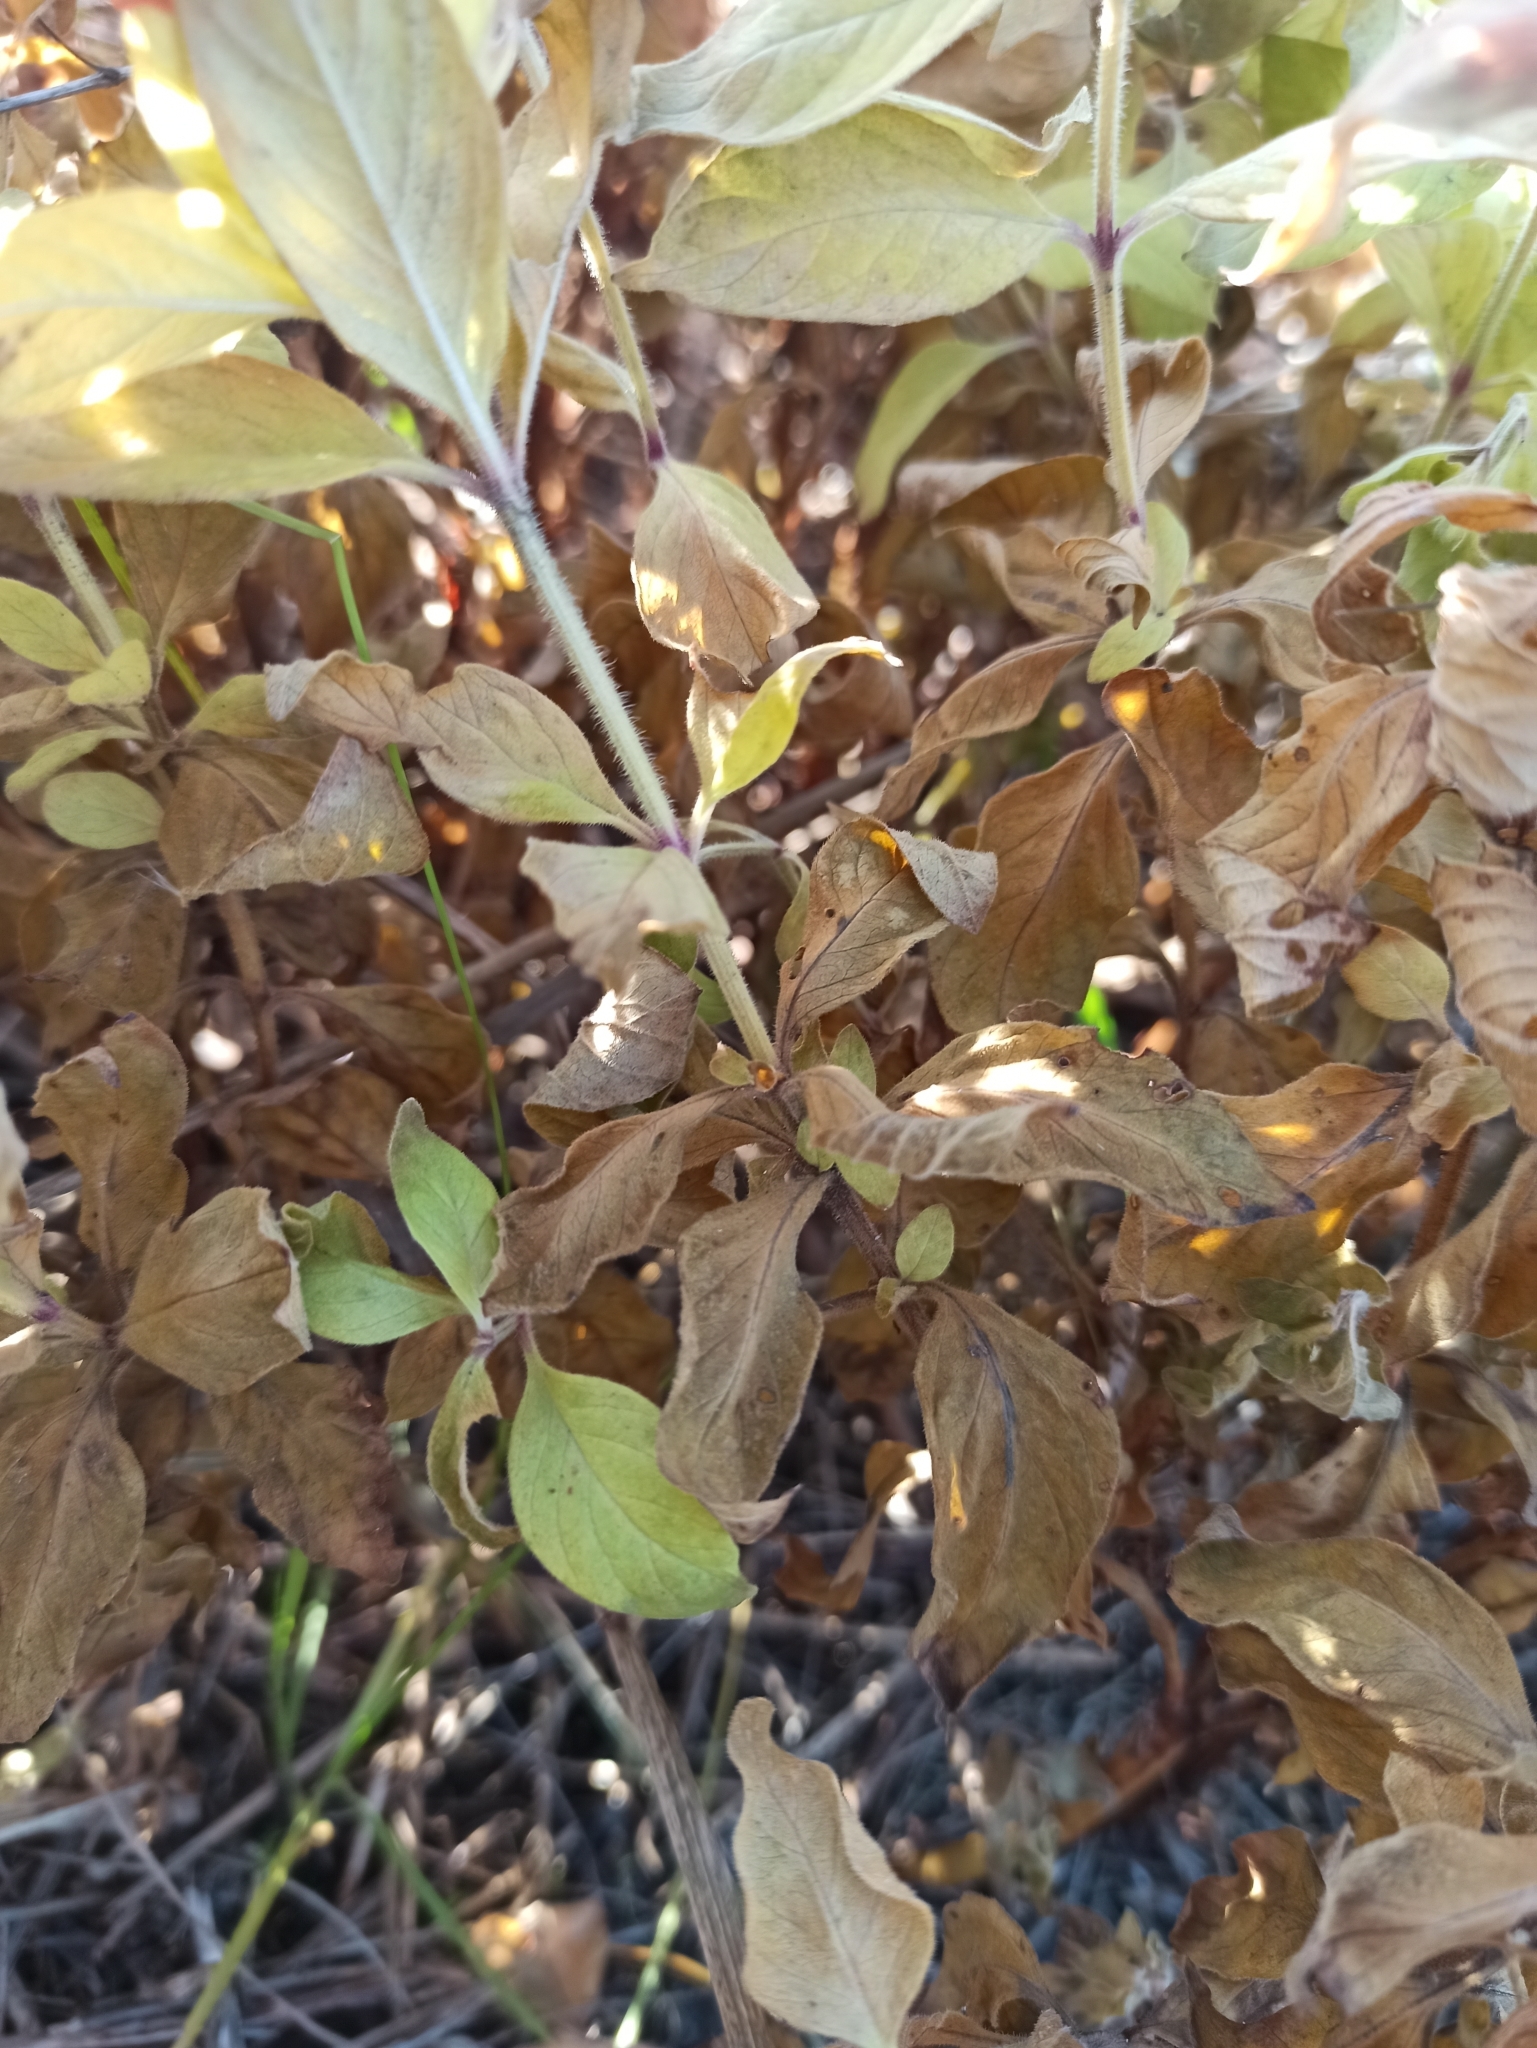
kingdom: Plantae
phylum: Tracheophyta
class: Magnoliopsida
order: Ericales
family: Primulaceae
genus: Lysimachia
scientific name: Lysimachia punctata
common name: Dotted loosestrife
